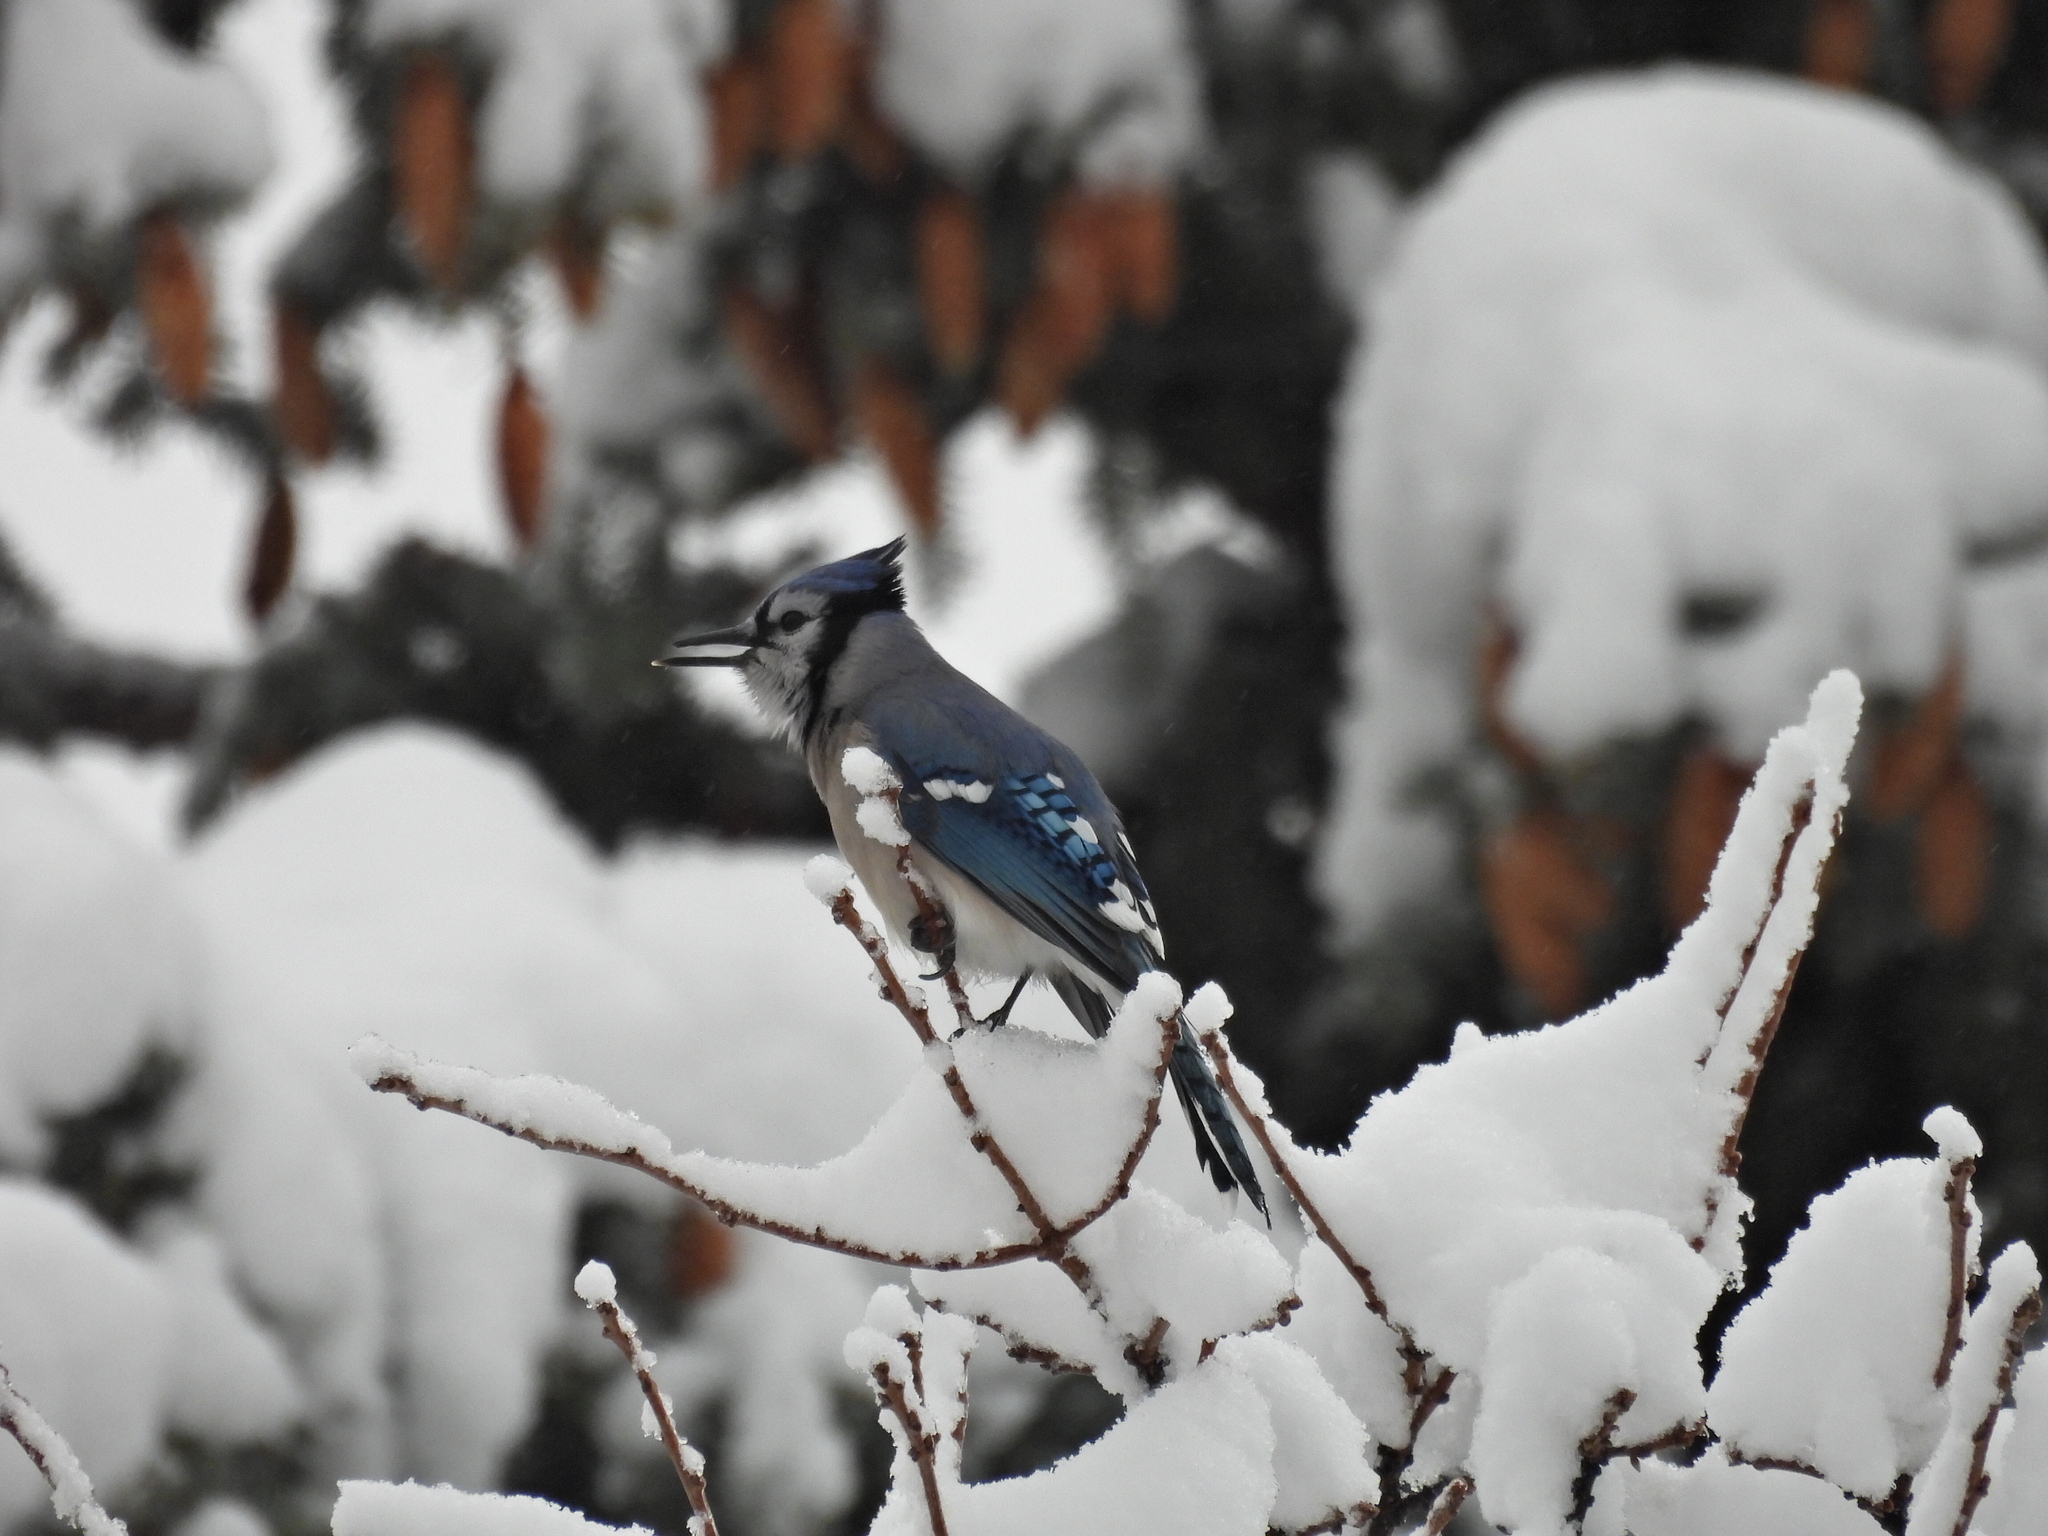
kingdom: Animalia
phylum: Chordata
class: Aves
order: Passeriformes
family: Corvidae
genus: Cyanocitta
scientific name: Cyanocitta cristata
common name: Blue jay
